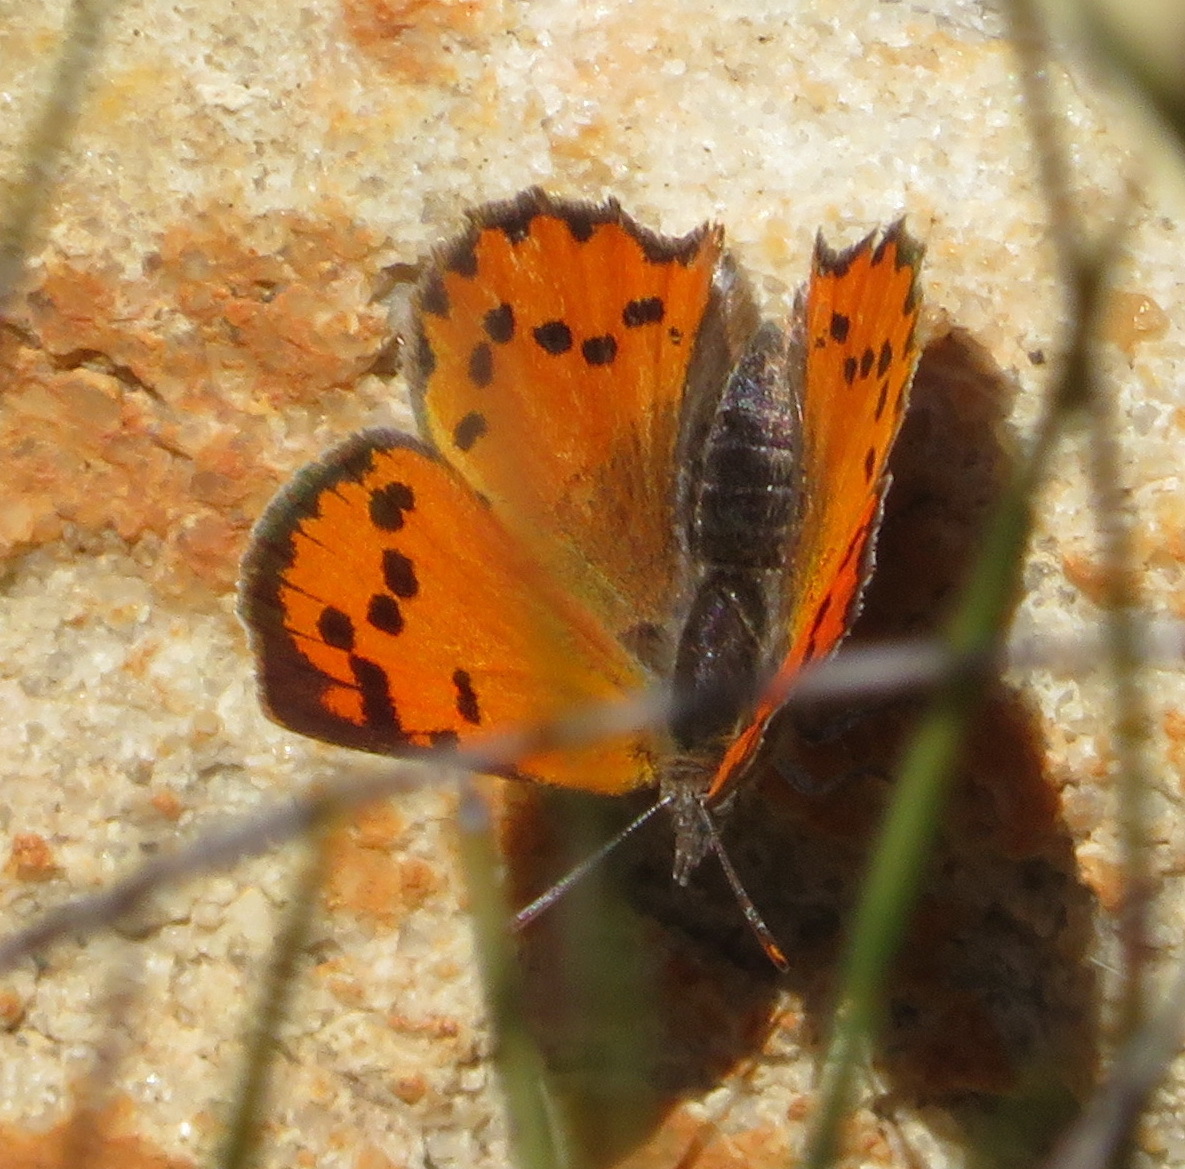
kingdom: Animalia
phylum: Arthropoda
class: Insecta
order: Lepidoptera
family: Lycaenidae
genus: Zeritis
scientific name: Zeritis chrysaor
